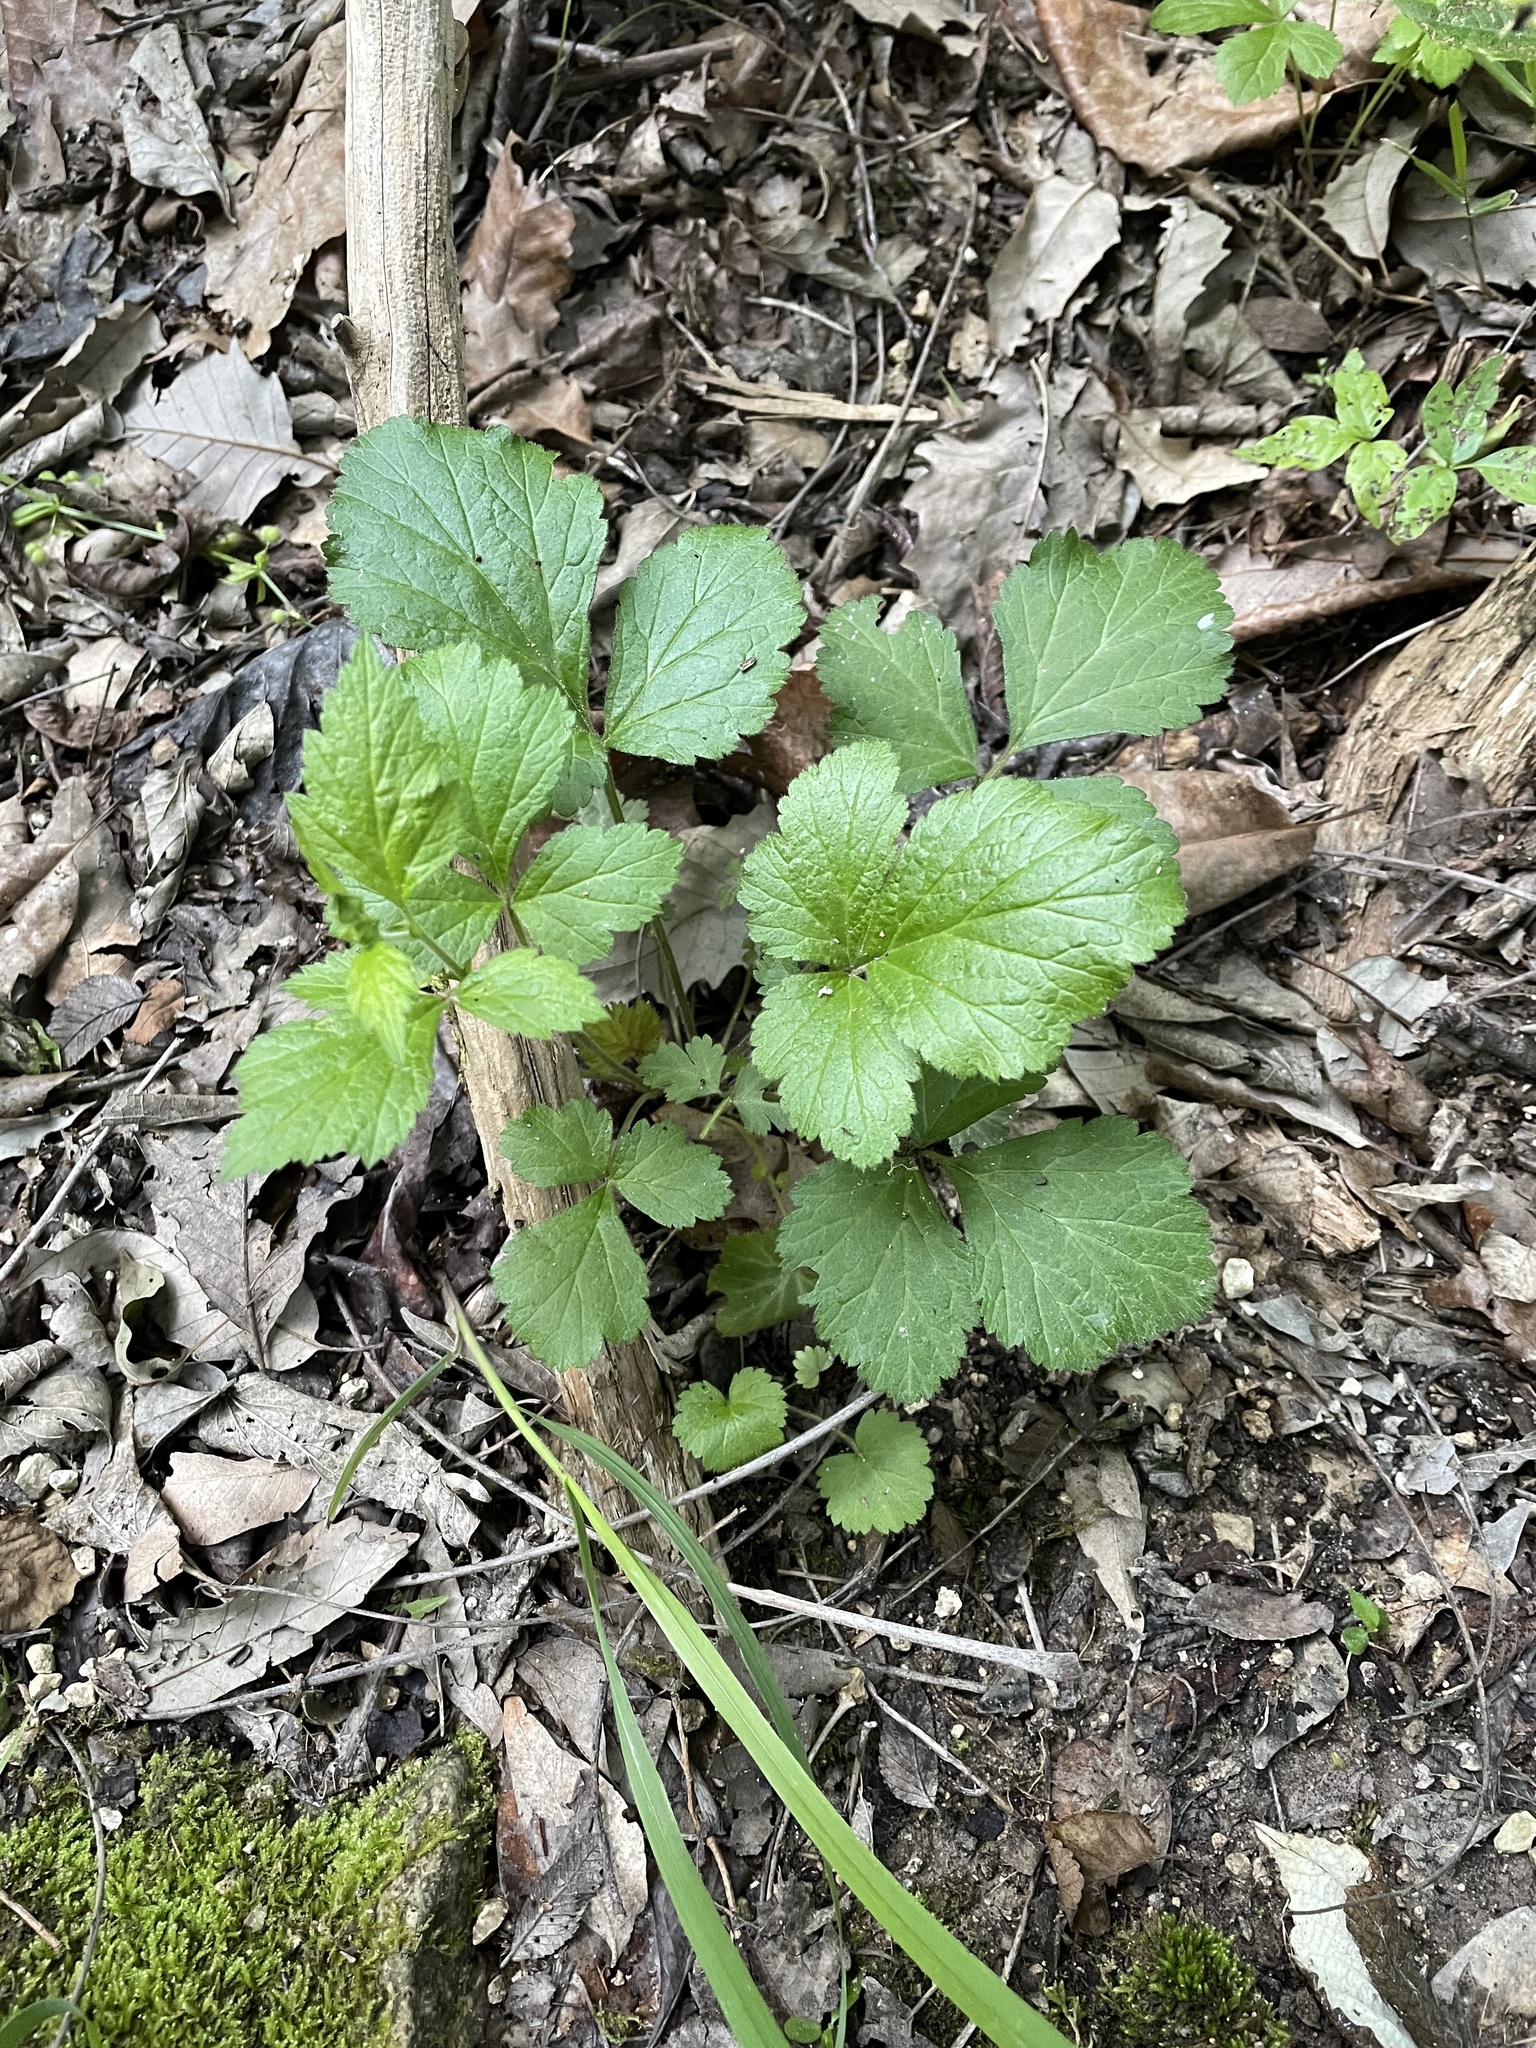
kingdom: Plantae
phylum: Tracheophyta
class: Magnoliopsida
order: Rosales
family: Rosaceae
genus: Geum
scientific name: Geum canadense
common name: White avens
